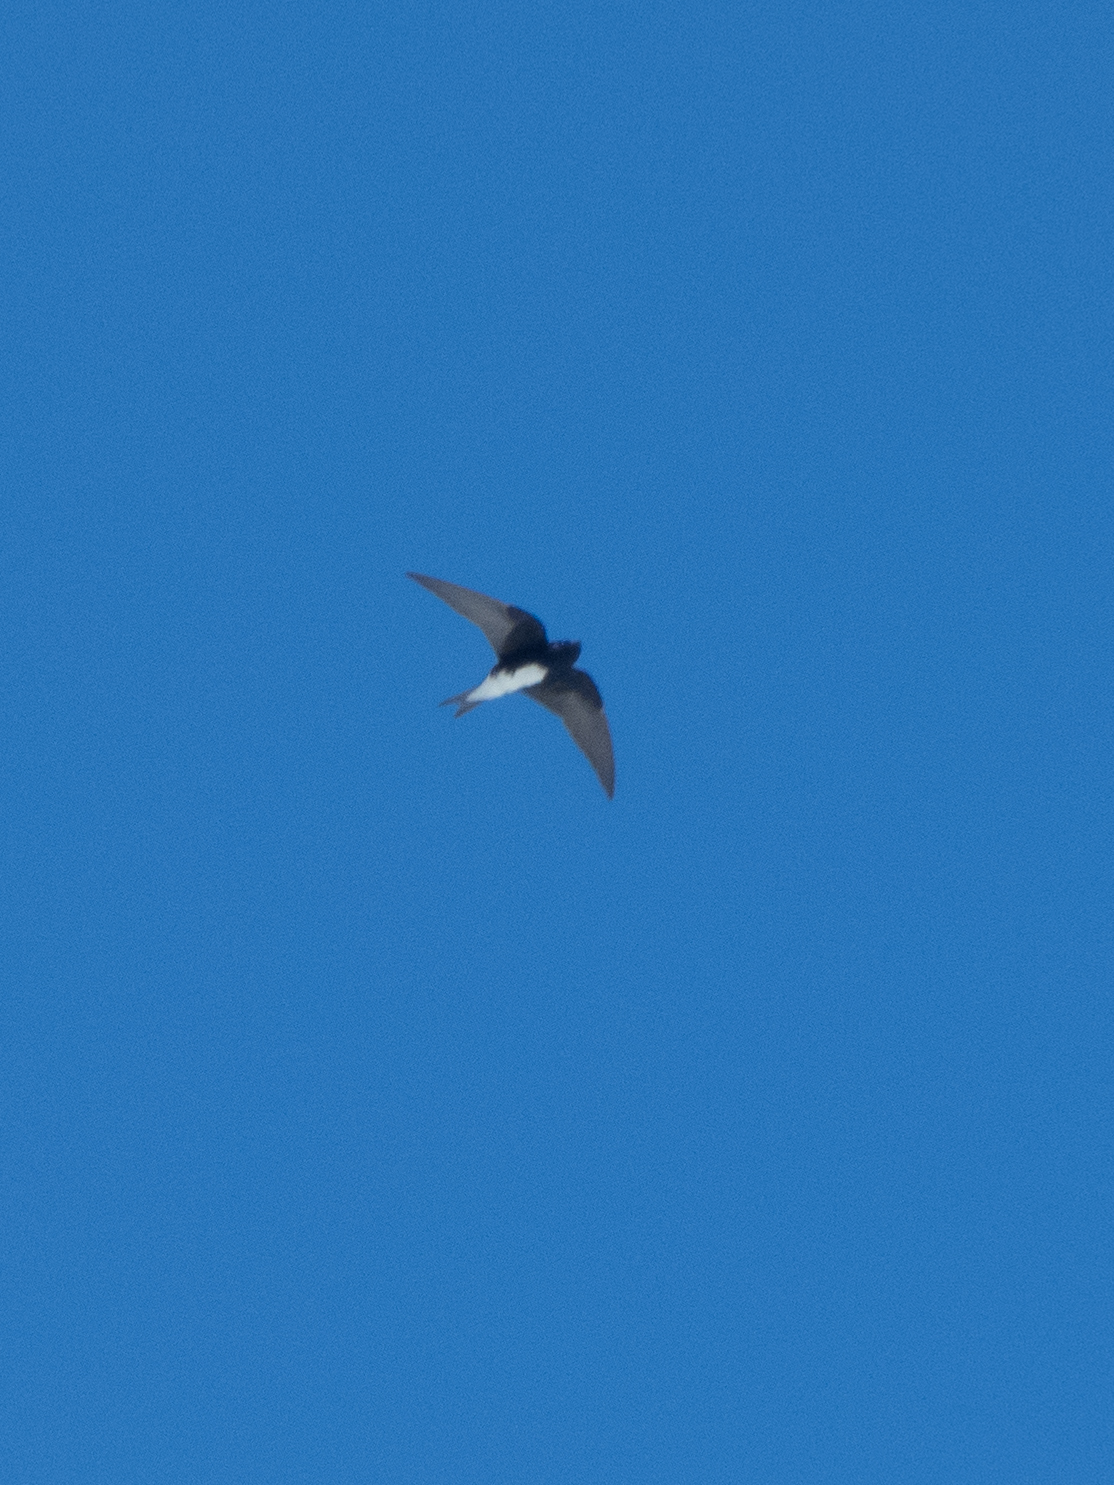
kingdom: Animalia
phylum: Chordata
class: Aves
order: Passeriformes
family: Hirundinidae
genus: Progne
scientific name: Progne dominicensis
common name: Caribbean martin
